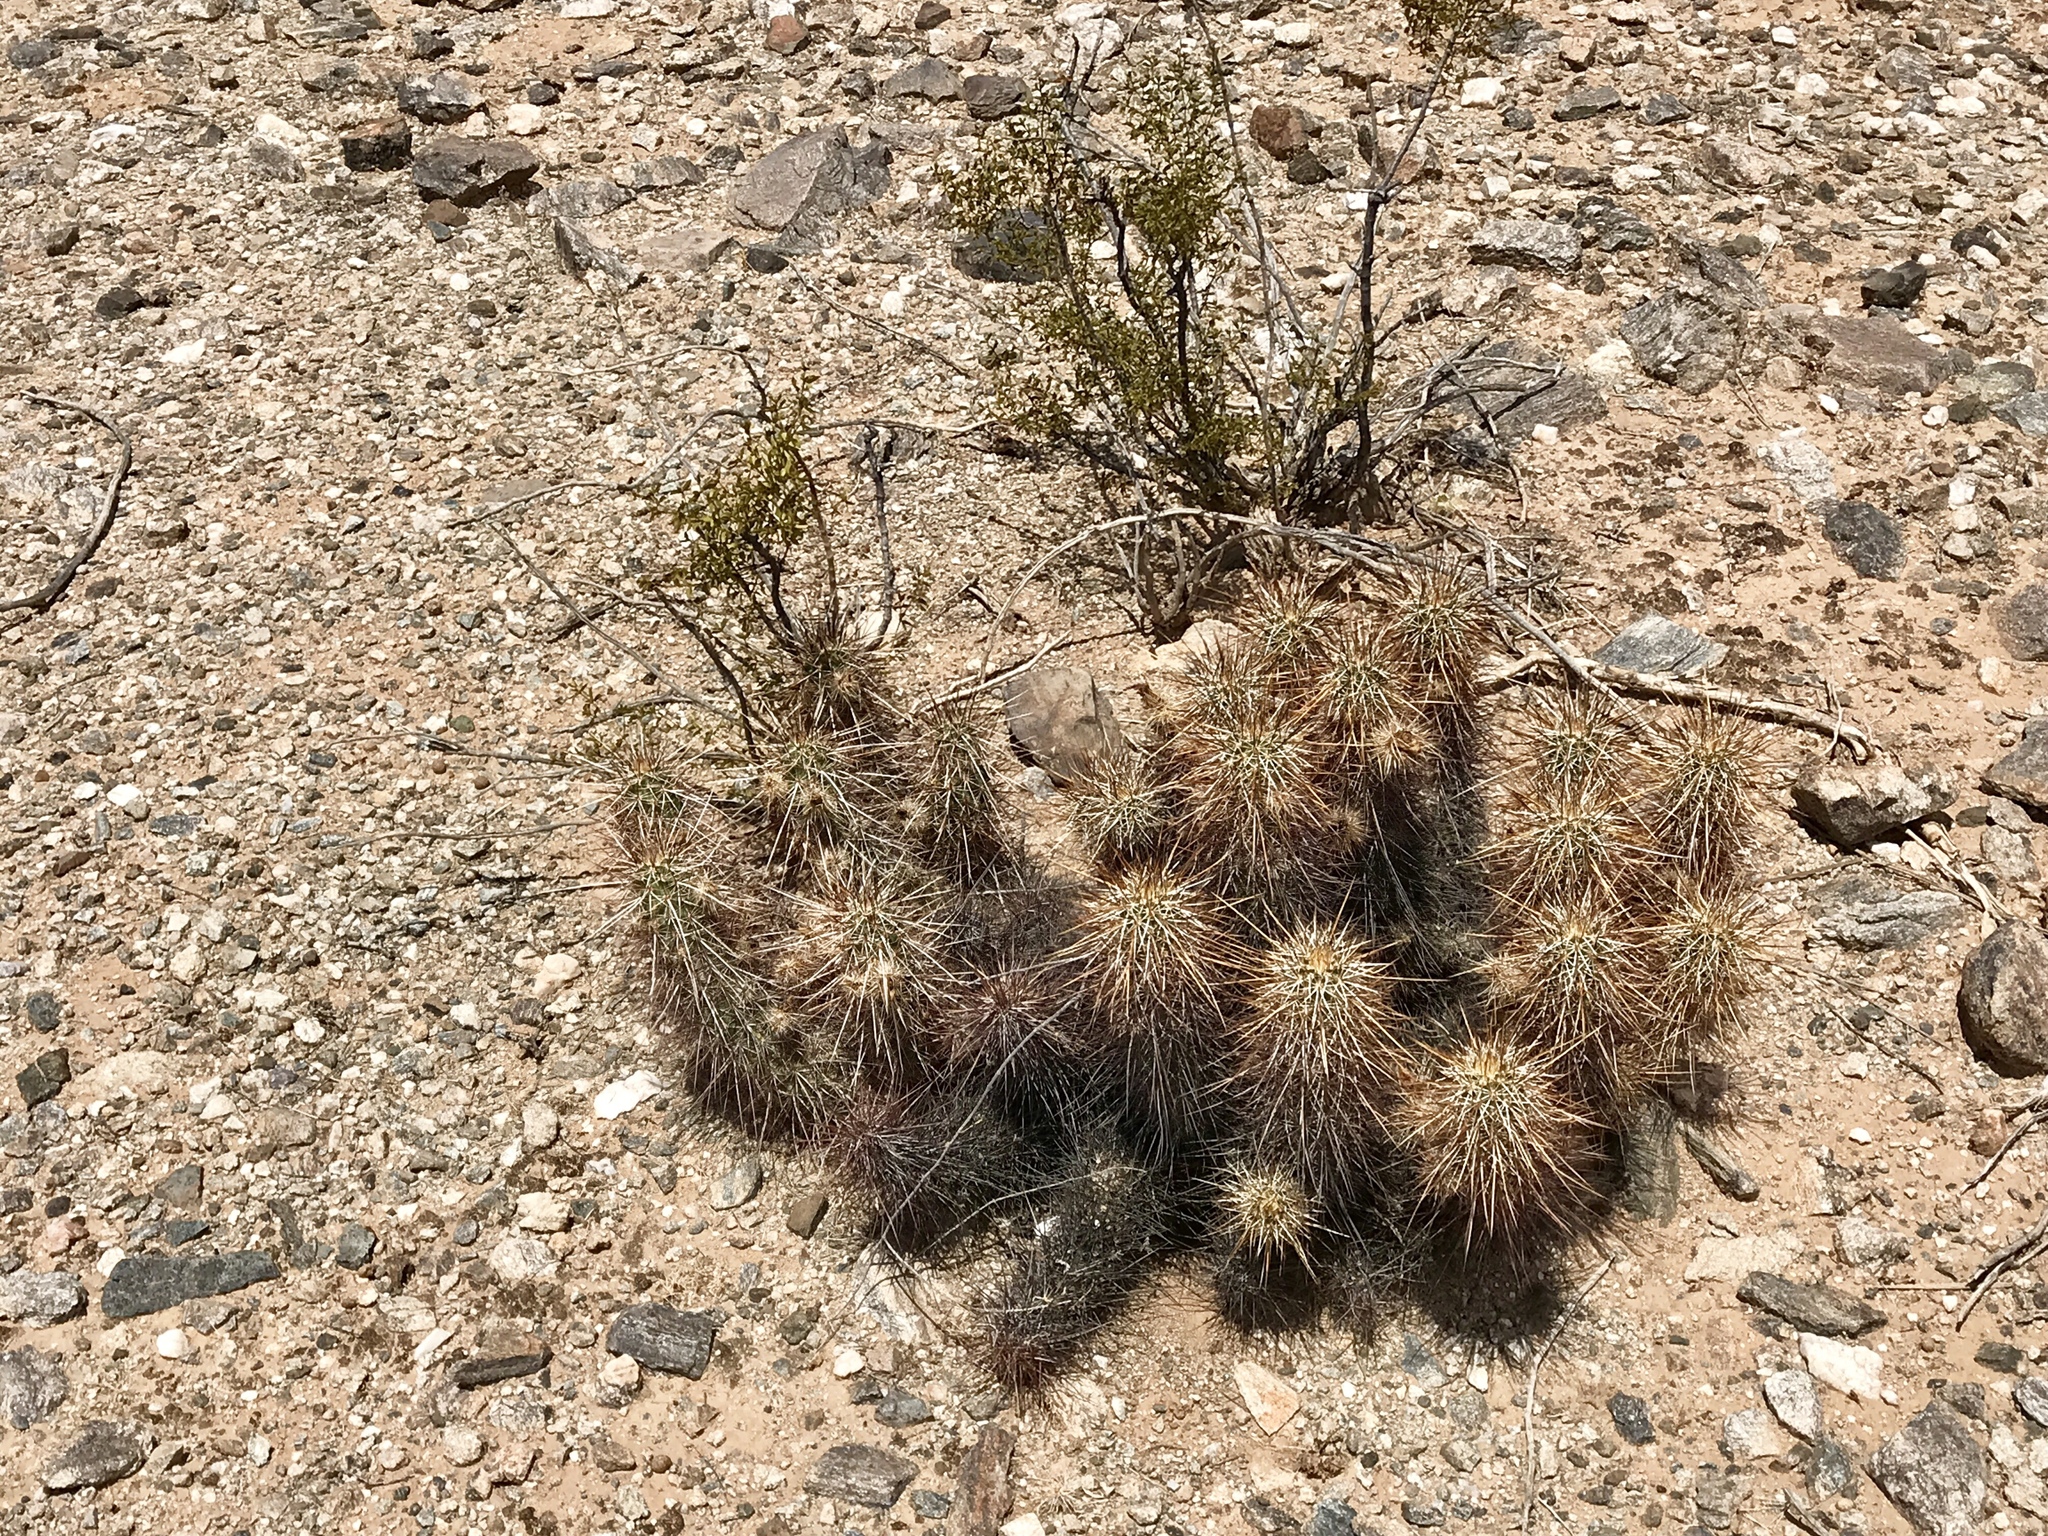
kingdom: Plantae
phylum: Tracheophyta
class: Magnoliopsida
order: Caryophyllales
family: Cactaceae
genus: Echinocereus
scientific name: Echinocereus engelmannii
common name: Engelmann's hedgehog cactus
